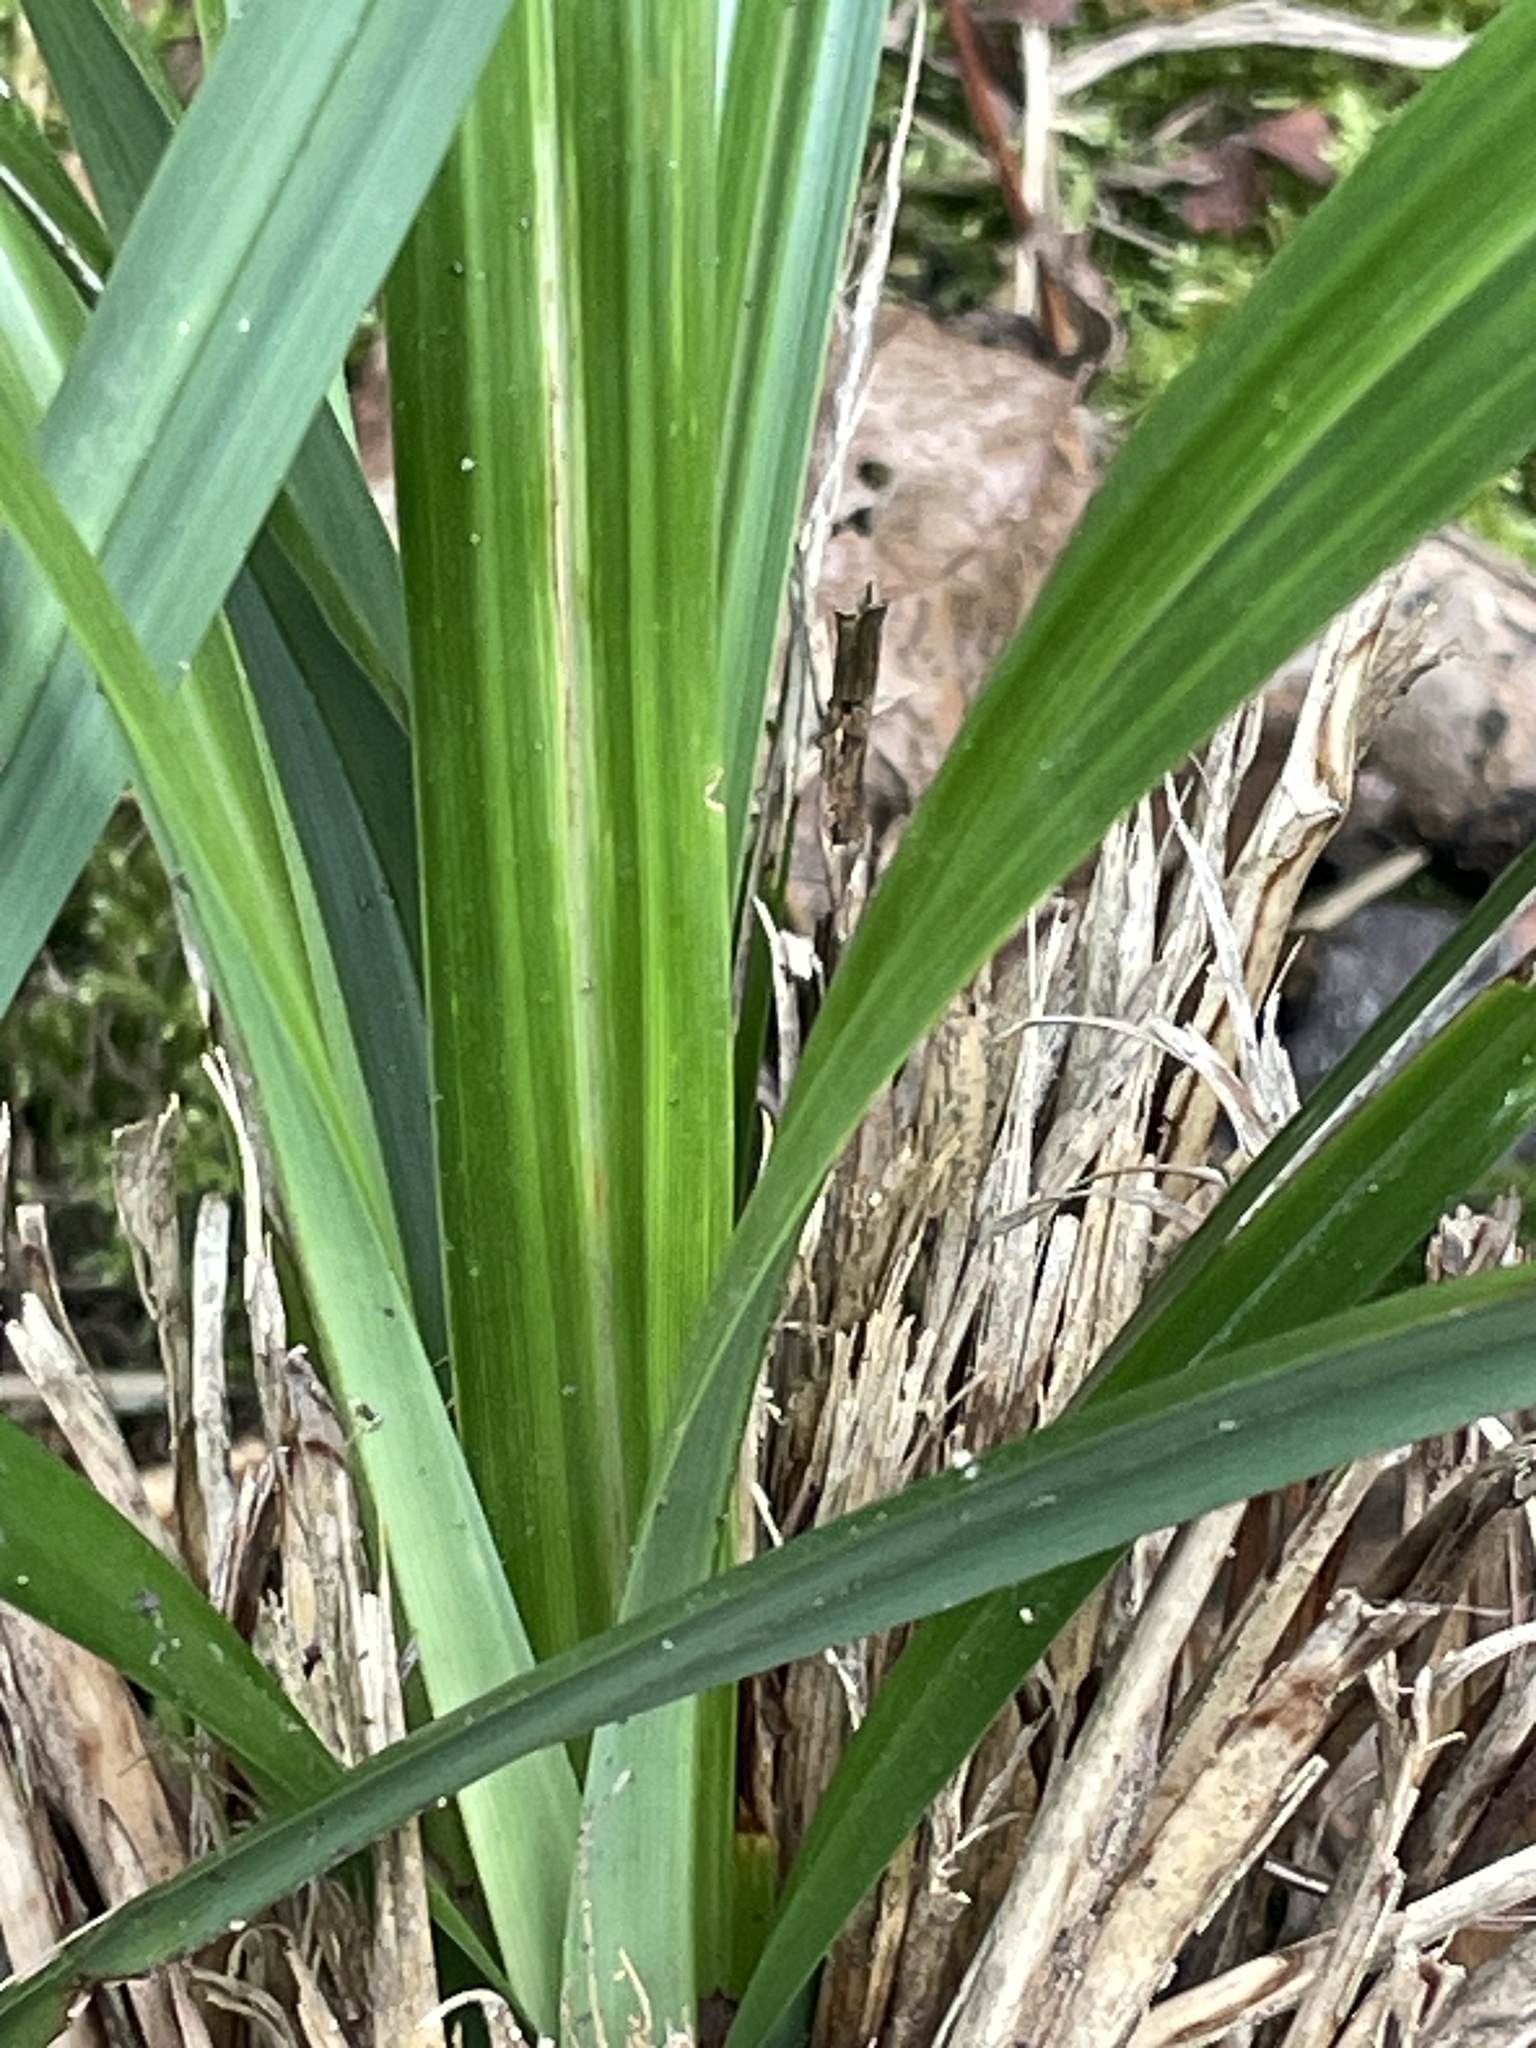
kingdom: Plantae
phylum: Tracheophyta
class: Liliopsida
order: Poales
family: Cyperaceae
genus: Carex
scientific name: Carex pendula
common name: Pendulous sedge
